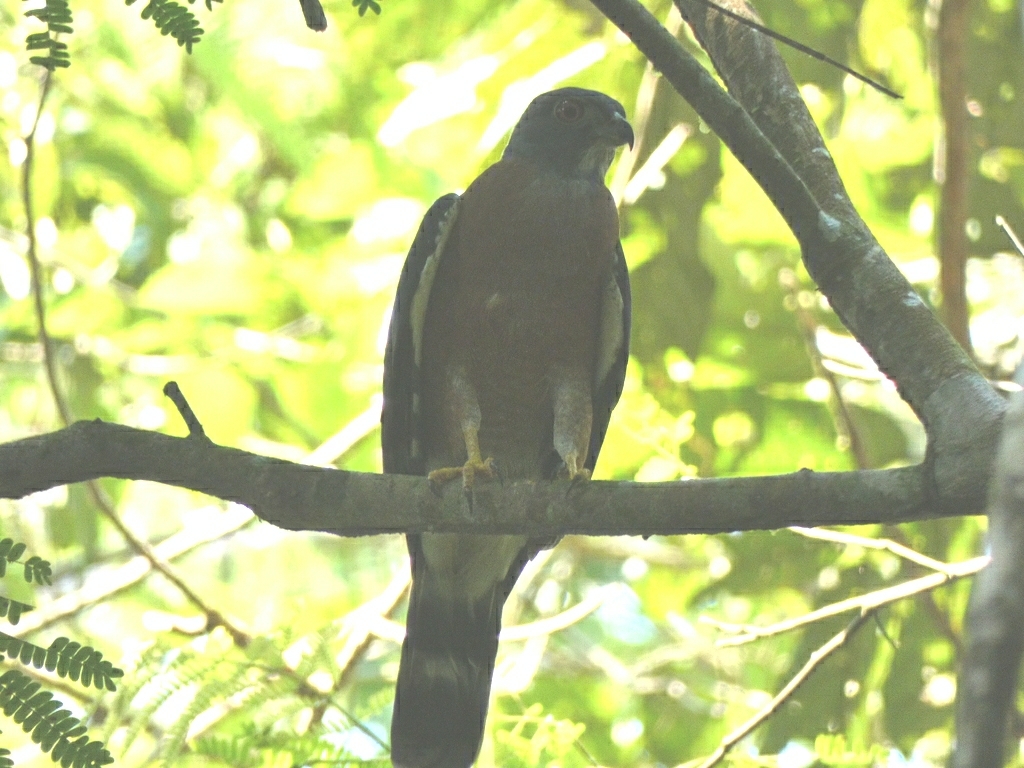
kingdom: Animalia
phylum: Chordata
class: Aves
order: Accipitriformes
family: Accipitridae
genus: Harpagus
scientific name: Harpagus bidentatus
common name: Double-toothed kite
